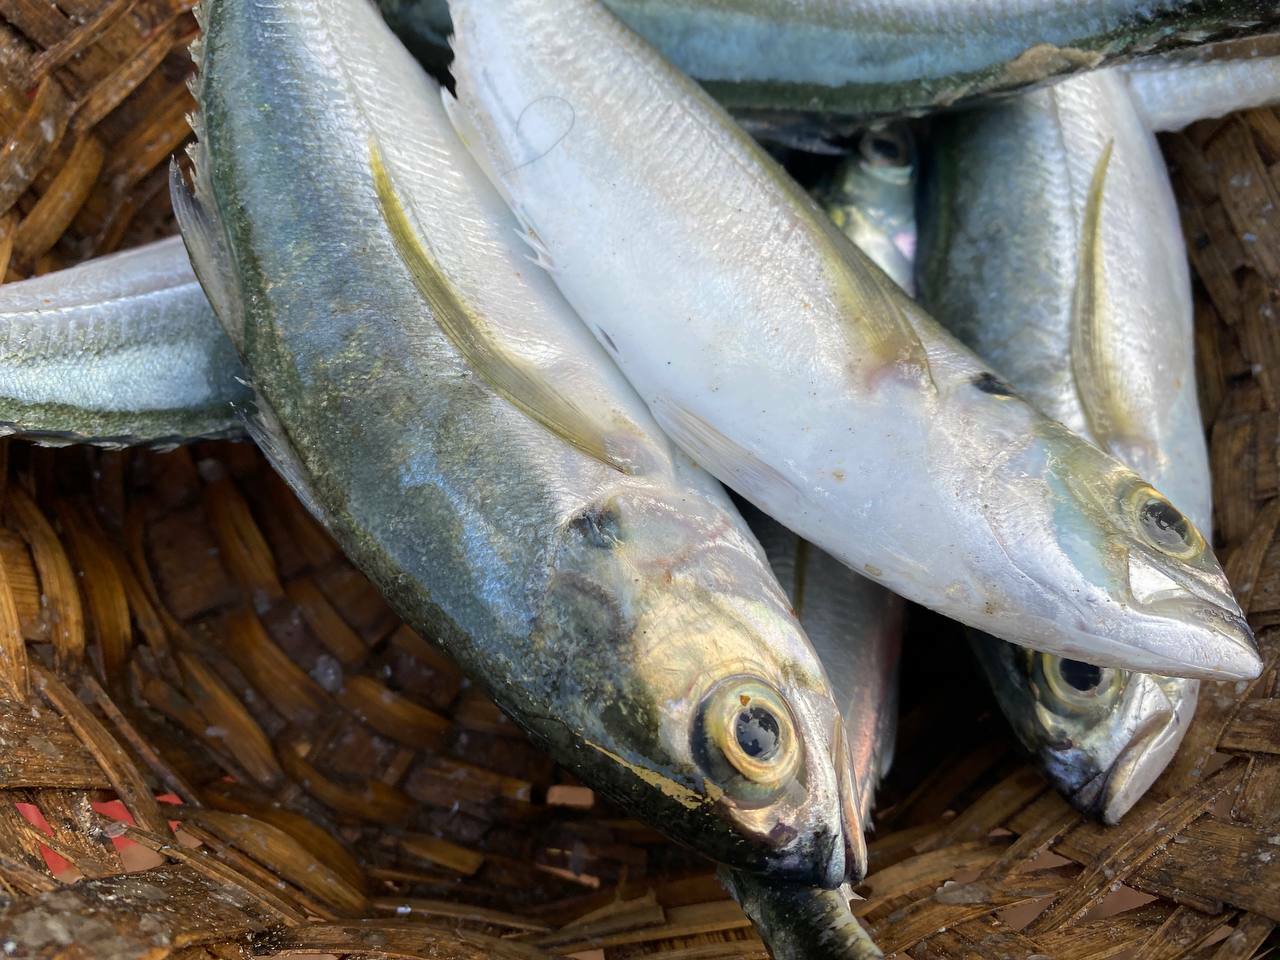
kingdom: Animalia
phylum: Chordata
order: Perciformes
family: Carangidae
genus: Megalaspis
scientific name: Megalaspis cordyla
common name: Torpedo scad
